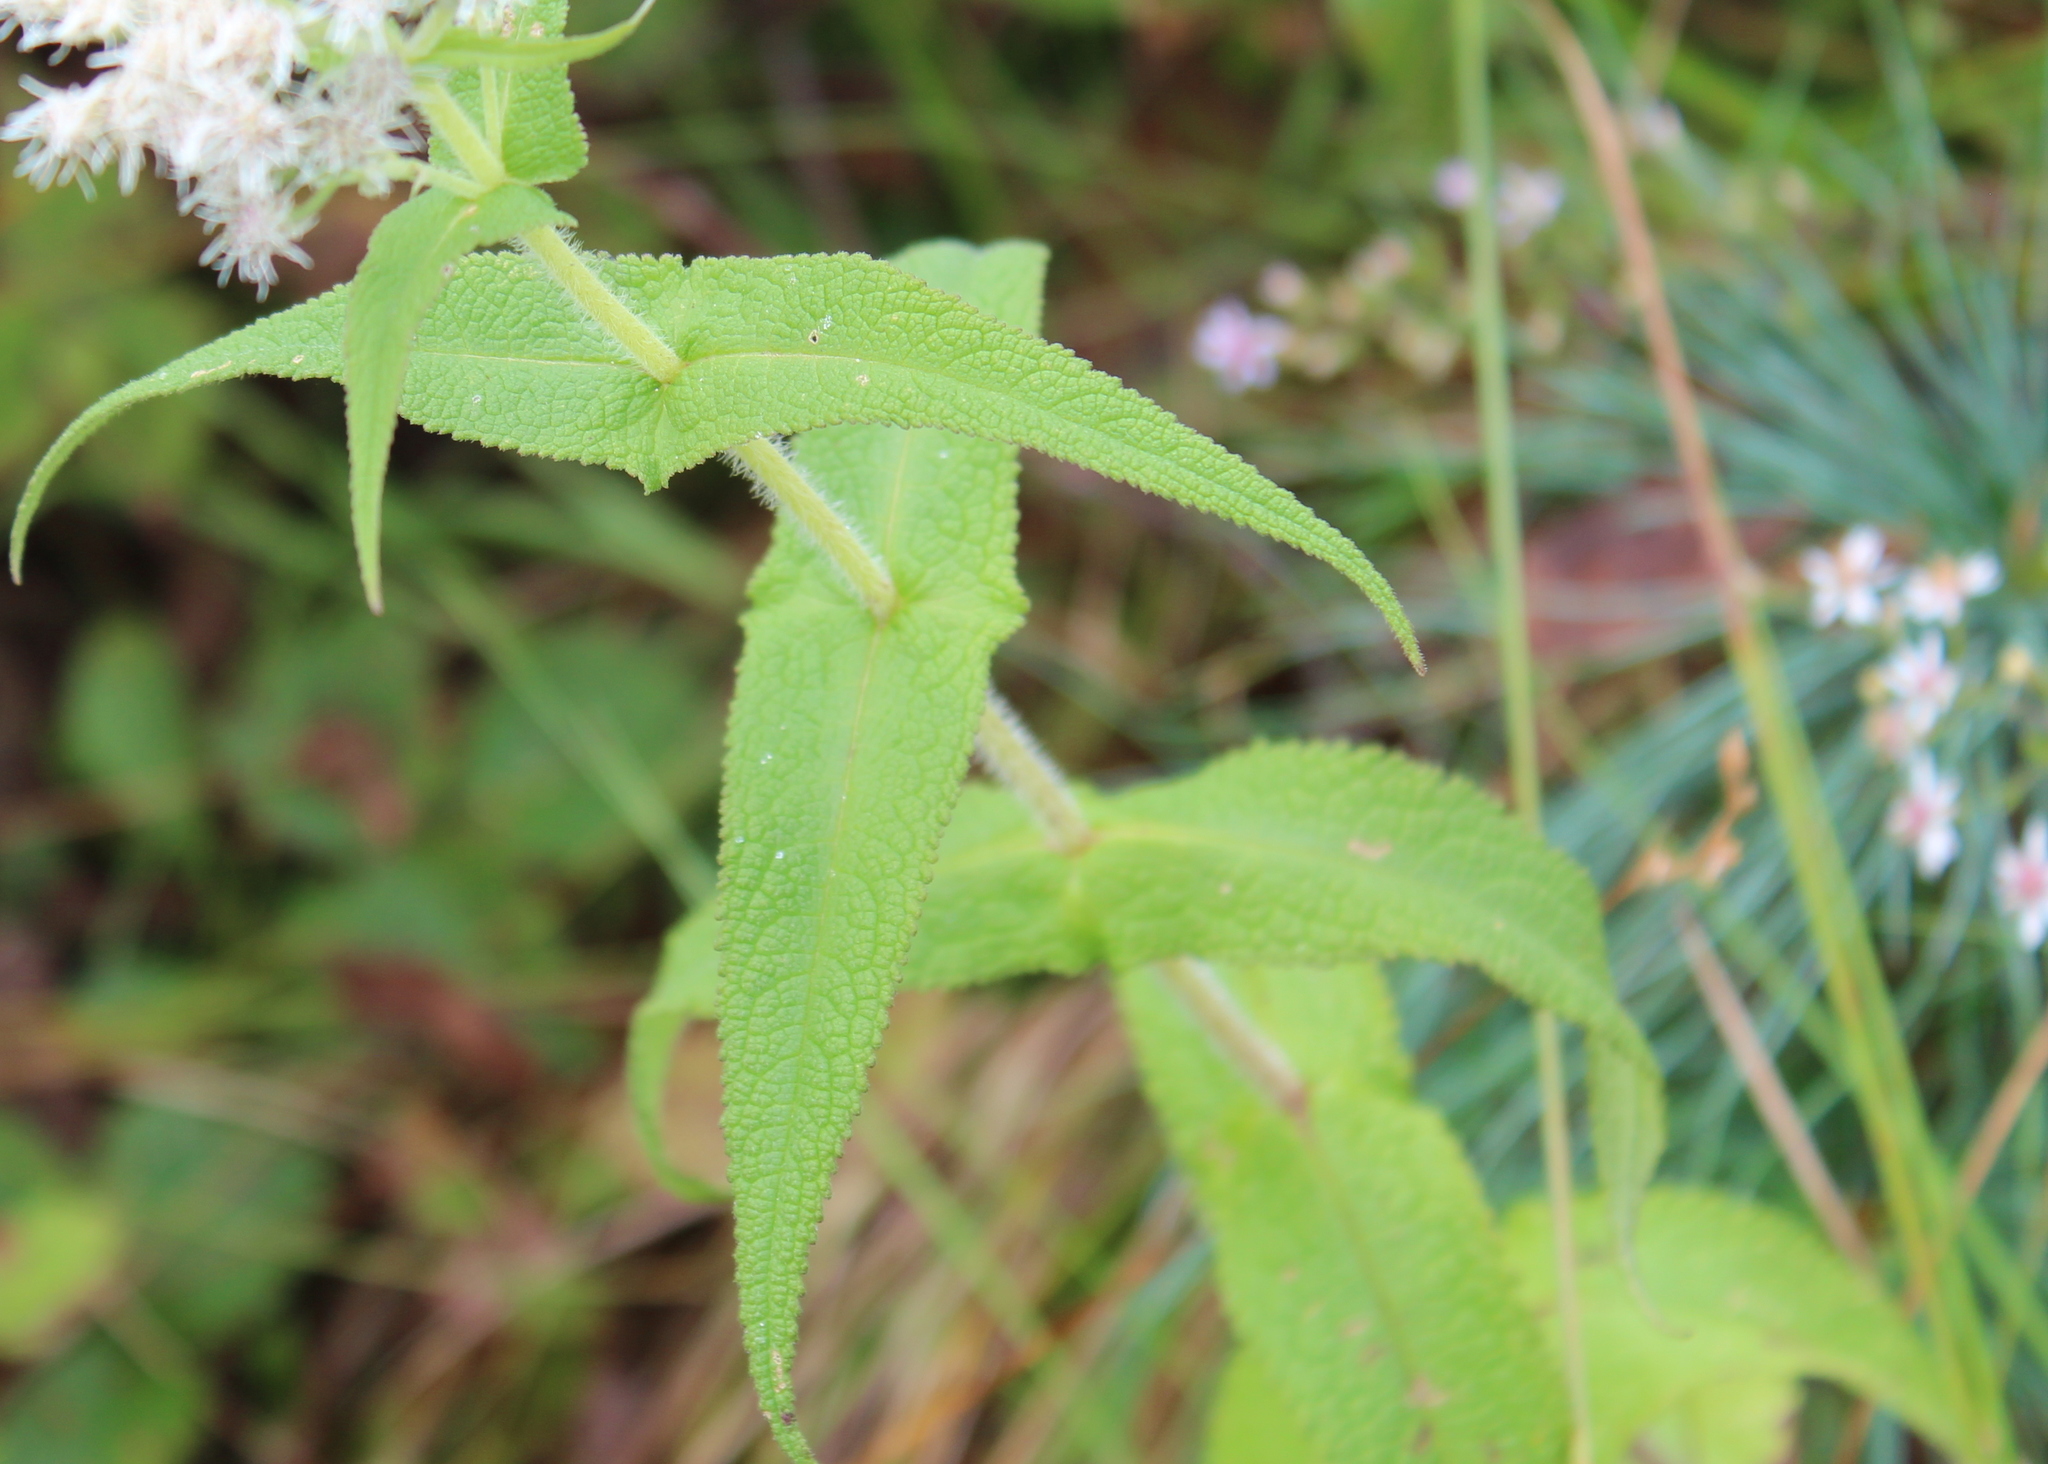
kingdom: Plantae
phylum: Tracheophyta
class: Magnoliopsida
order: Asterales
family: Asteraceae
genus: Eupatorium
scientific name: Eupatorium perfoliatum
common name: Boneset
